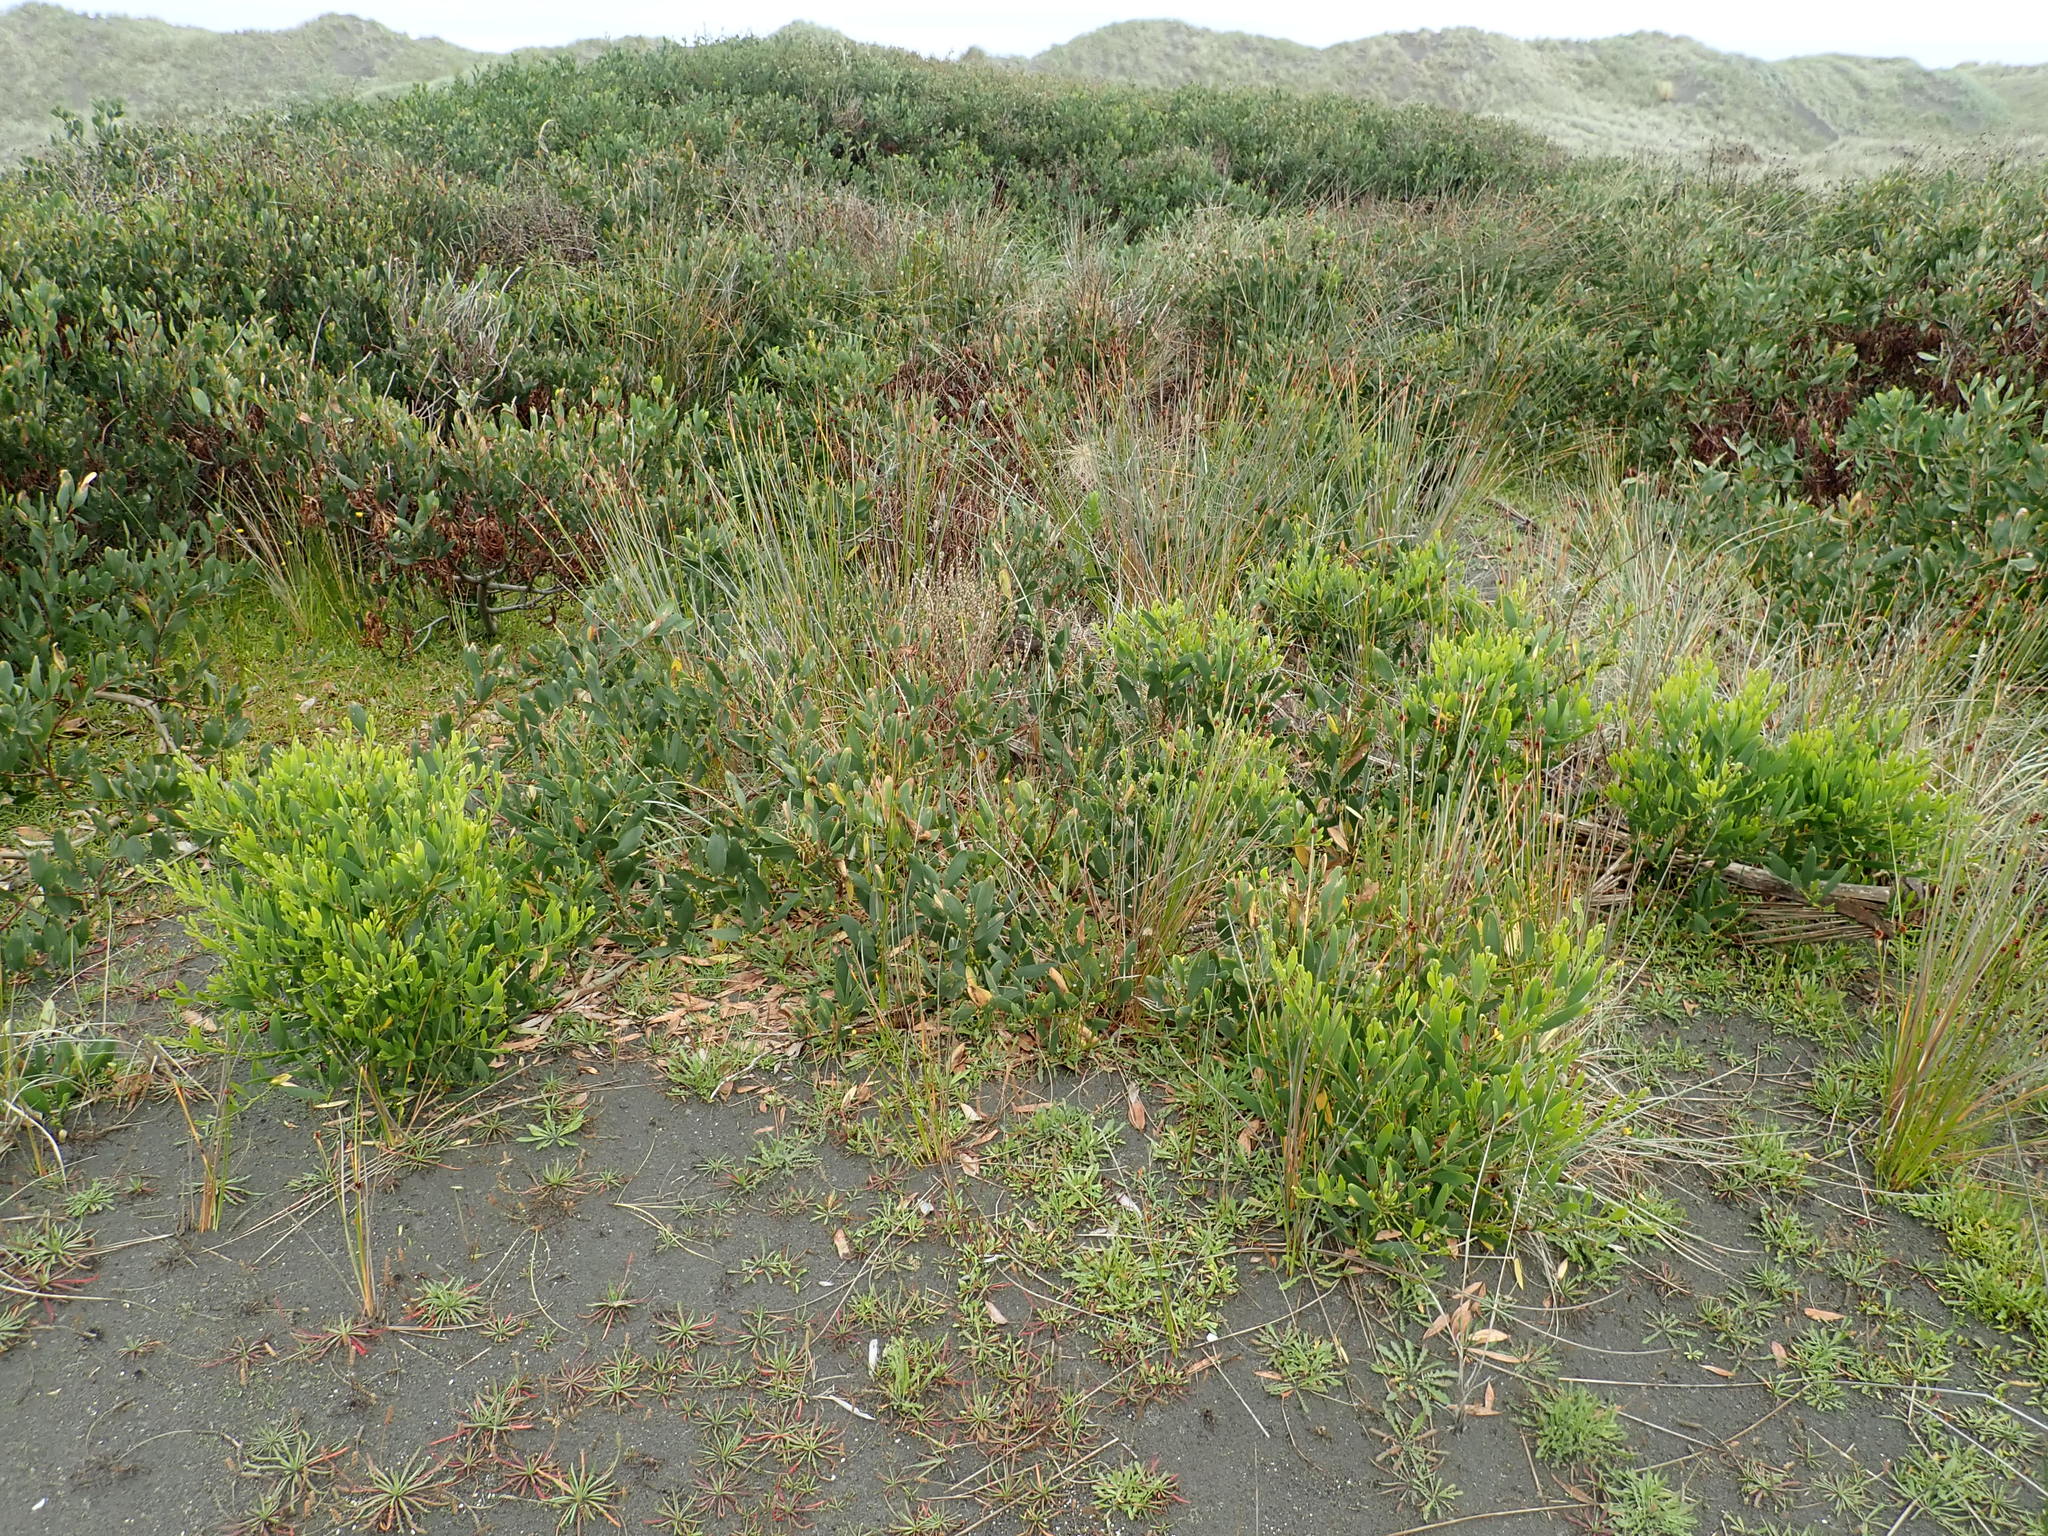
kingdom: Plantae
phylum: Tracheophyta
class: Magnoliopsida
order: Fabales
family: Fabaceae
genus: Acacia
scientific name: Acacia longifolia
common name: Sydney golden wattle
